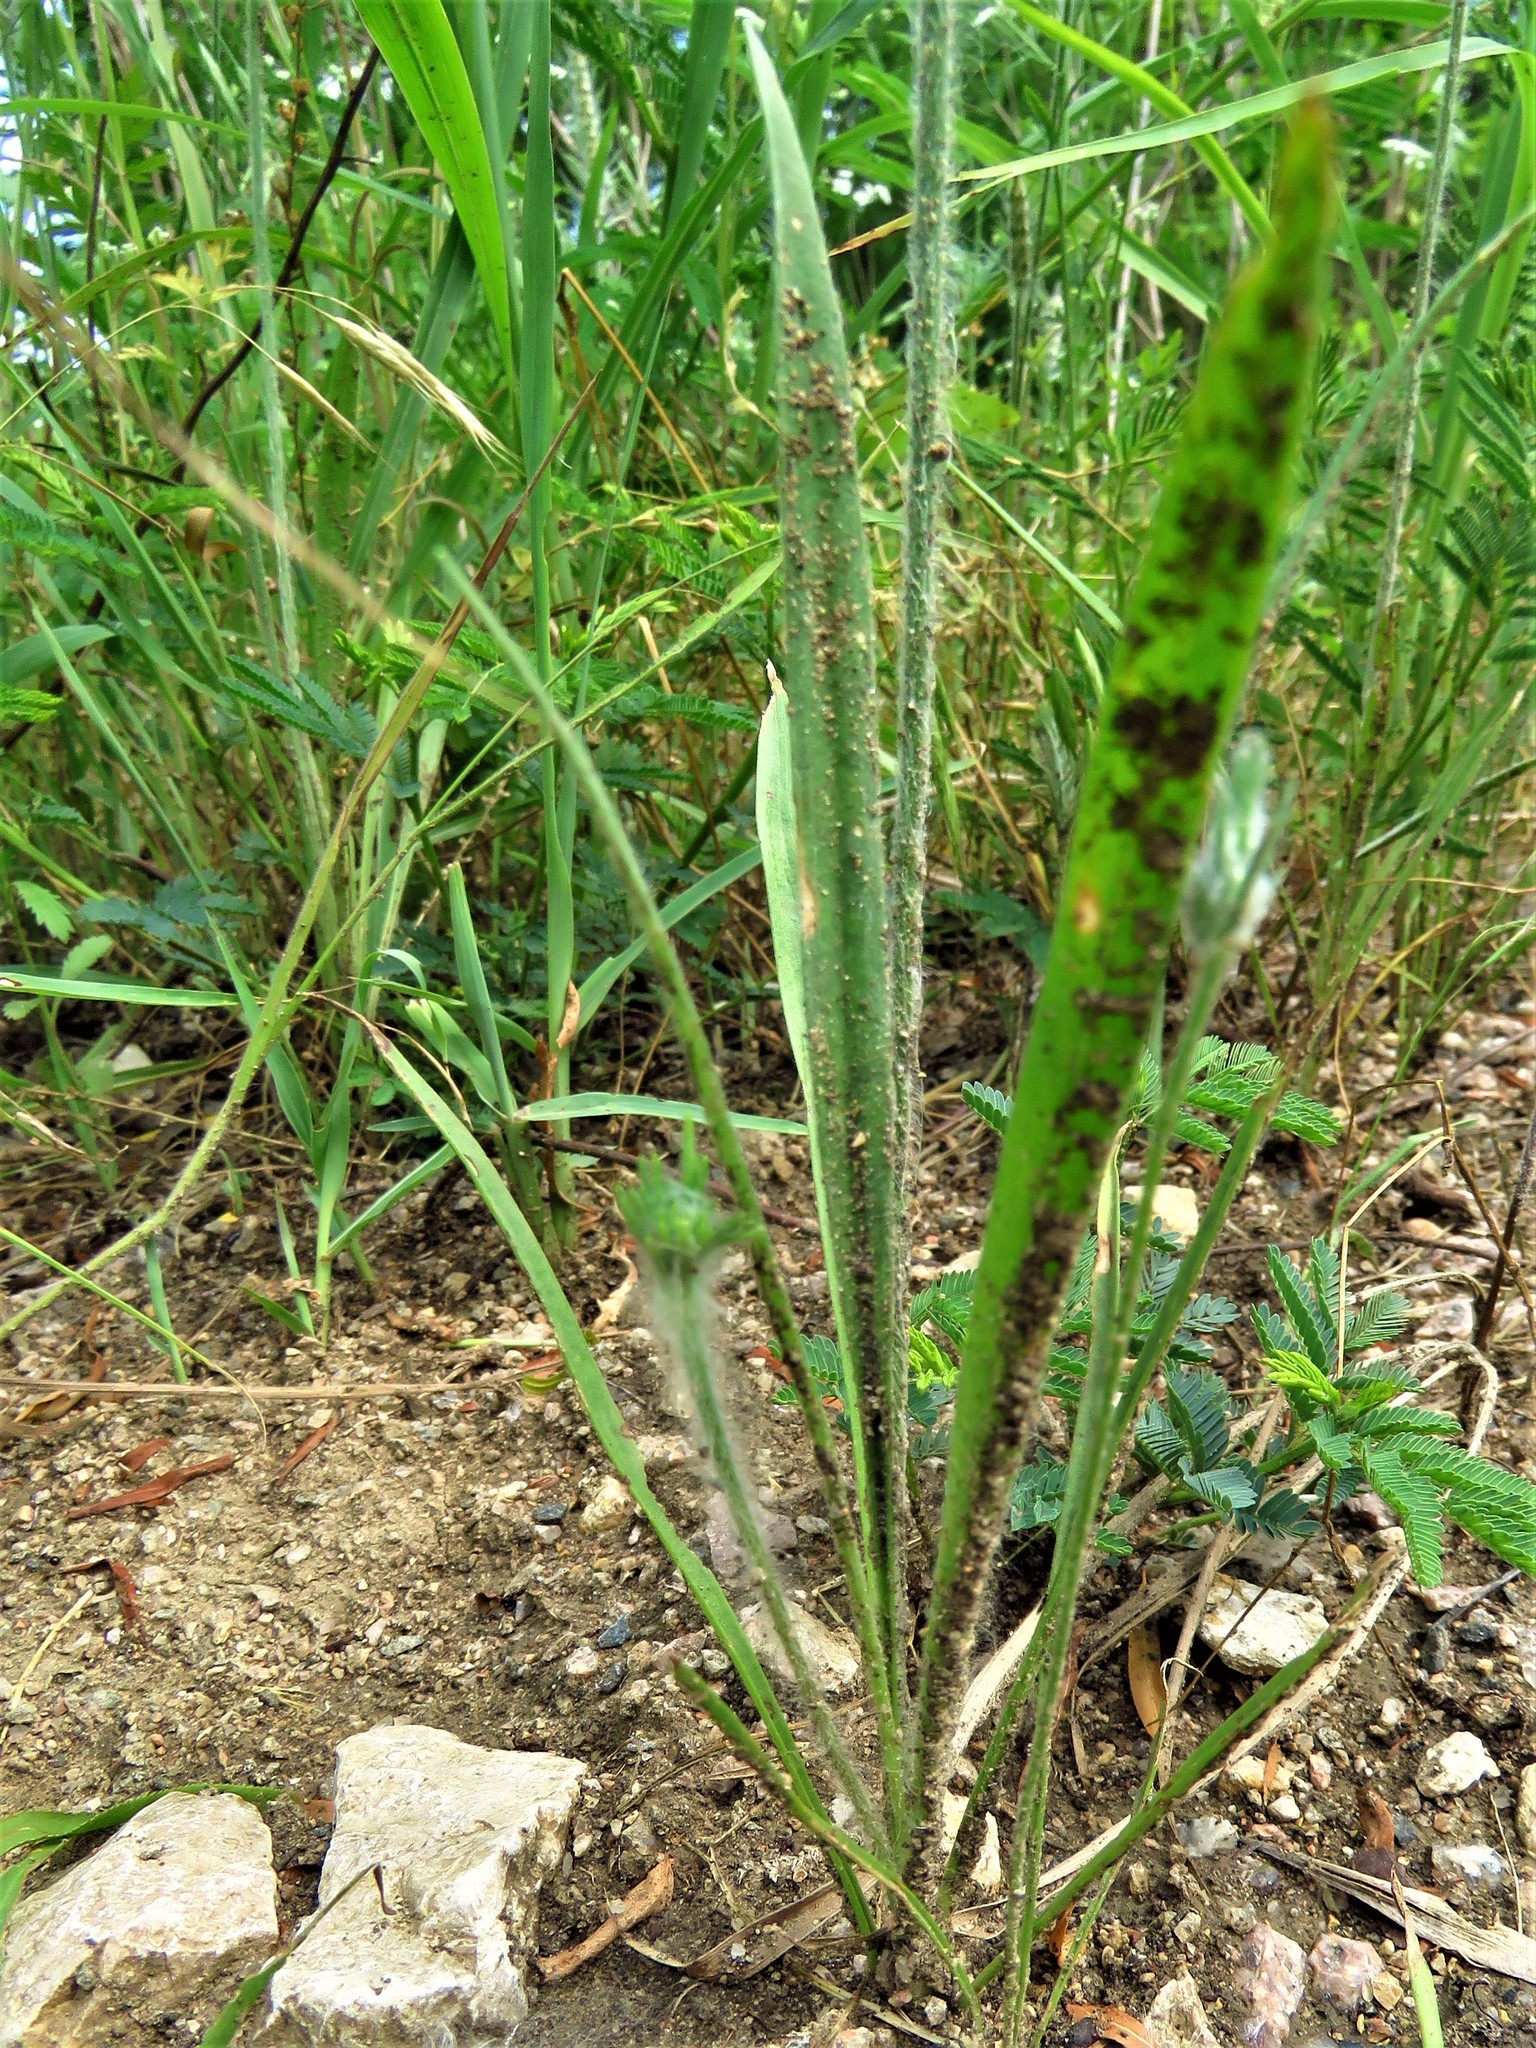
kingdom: Plantae
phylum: Tracheophyta
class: Magnoliopsida
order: Lamiales
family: Plantaginaceae
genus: Plantago
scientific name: Plantago aristata
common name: Bracted plantain
